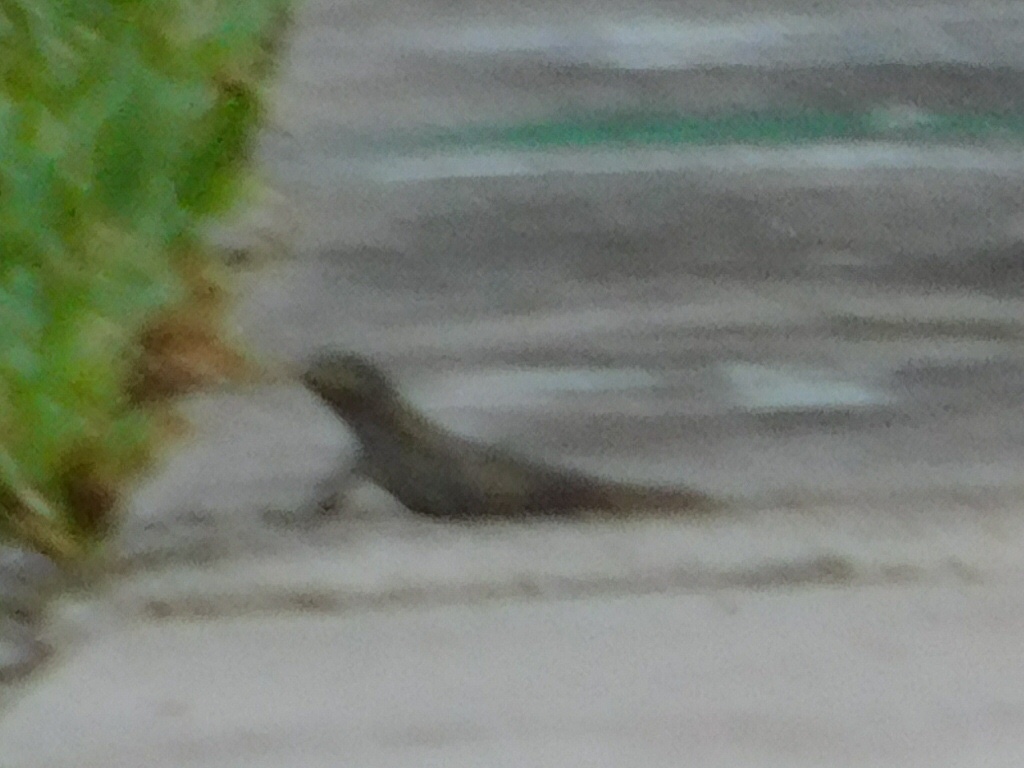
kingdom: Animalia
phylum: Chordata
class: Squamata
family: Leiocephalidae
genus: Leiocephalus
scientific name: Leiocephalus carinatus
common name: Northern curly-tailed lizard
